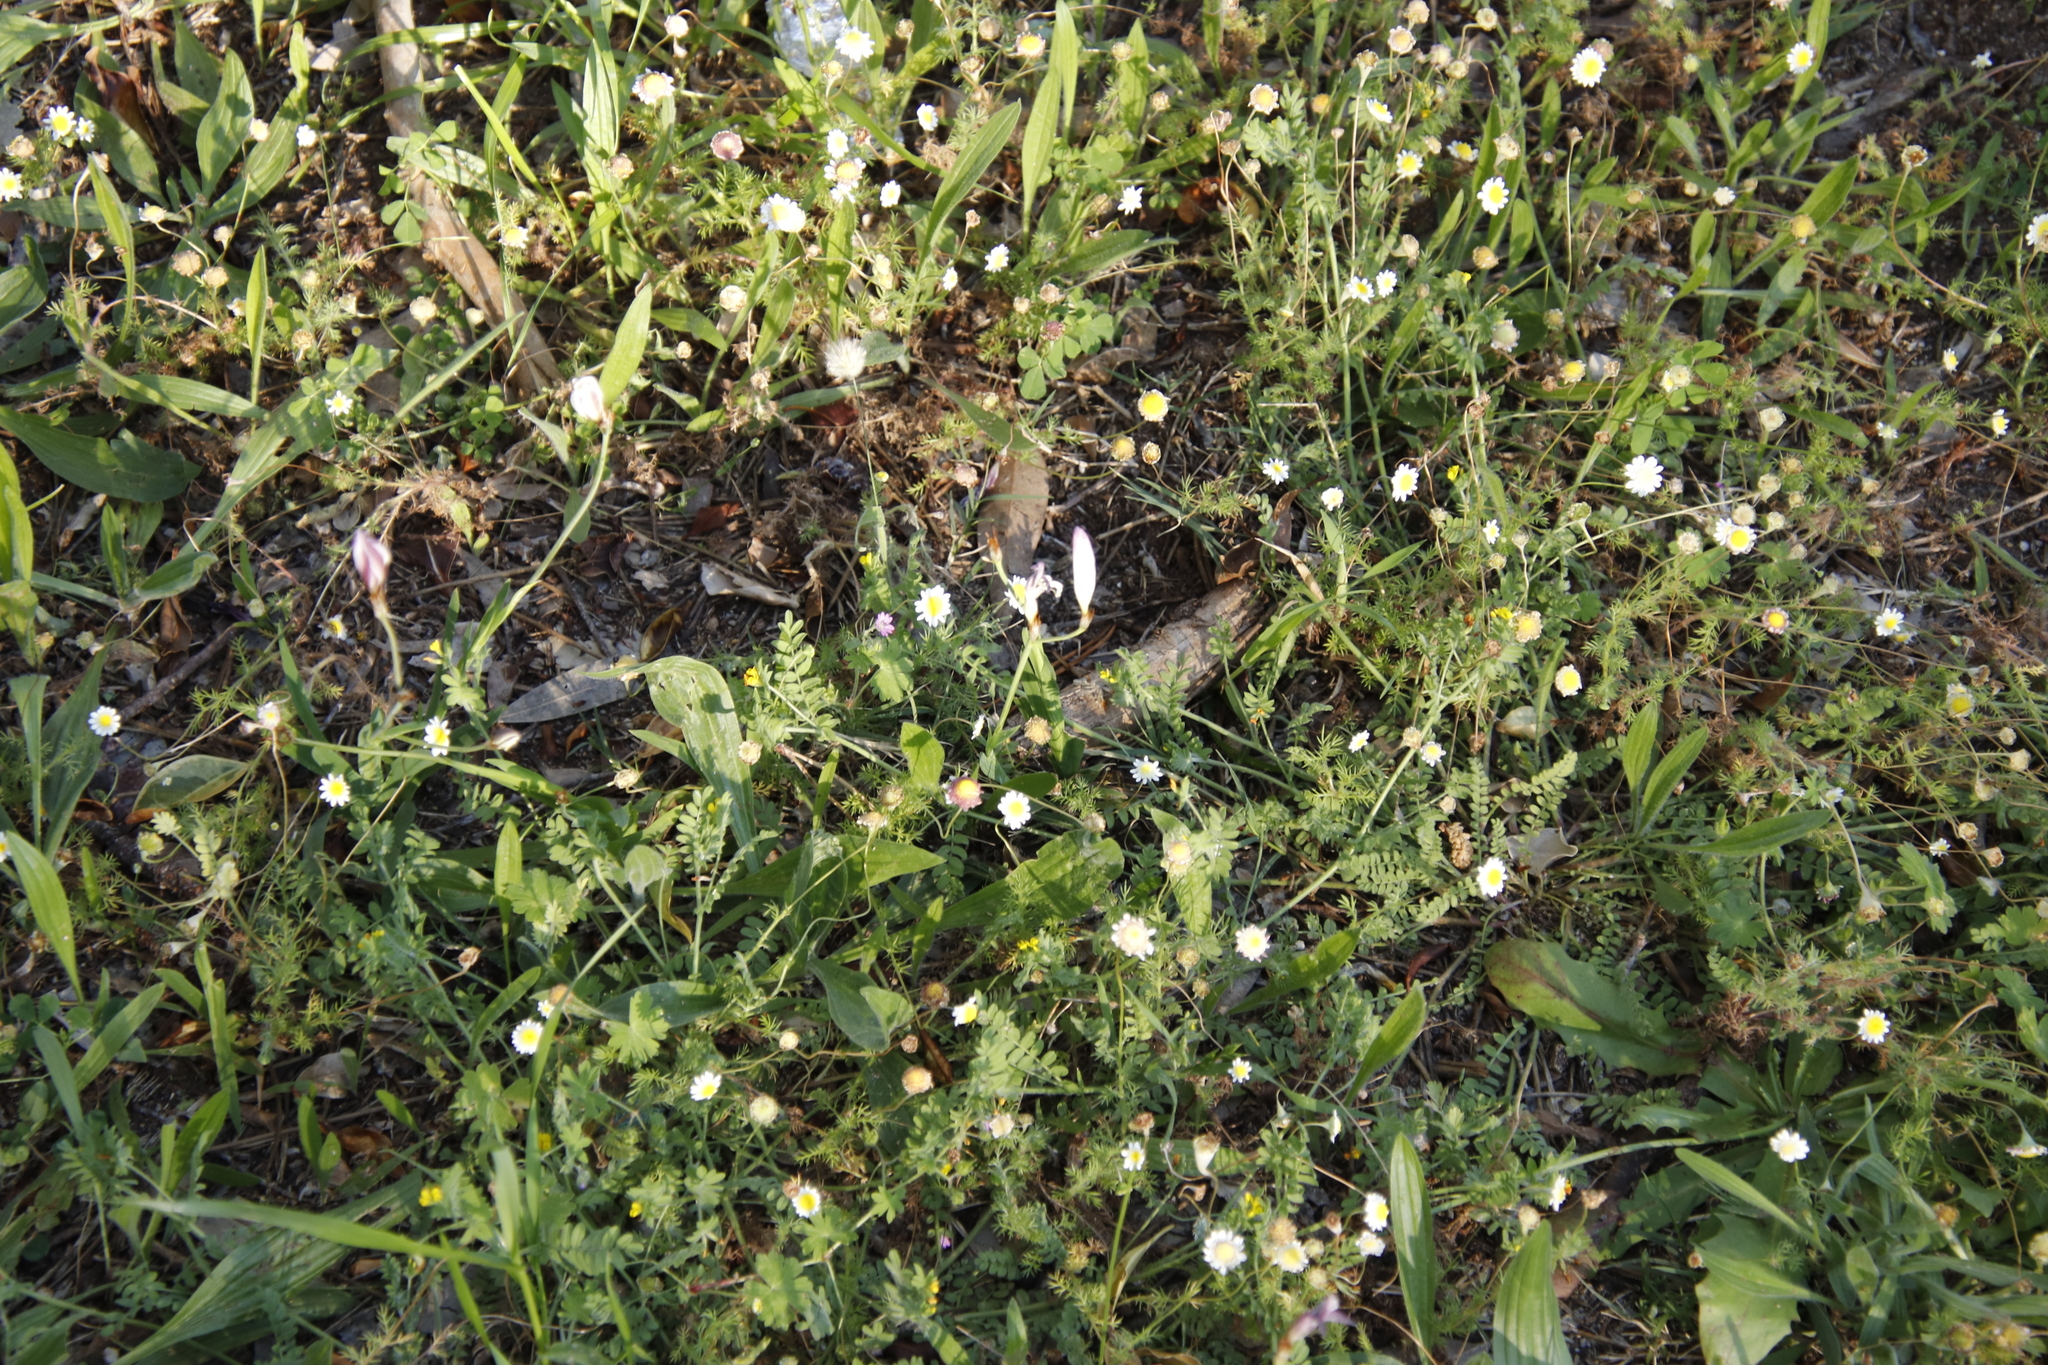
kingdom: Plantae
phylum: Tracheophyta
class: Magnoliopsida
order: Asterales
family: Asteraceae
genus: Cotula
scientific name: Cotula turbinata
